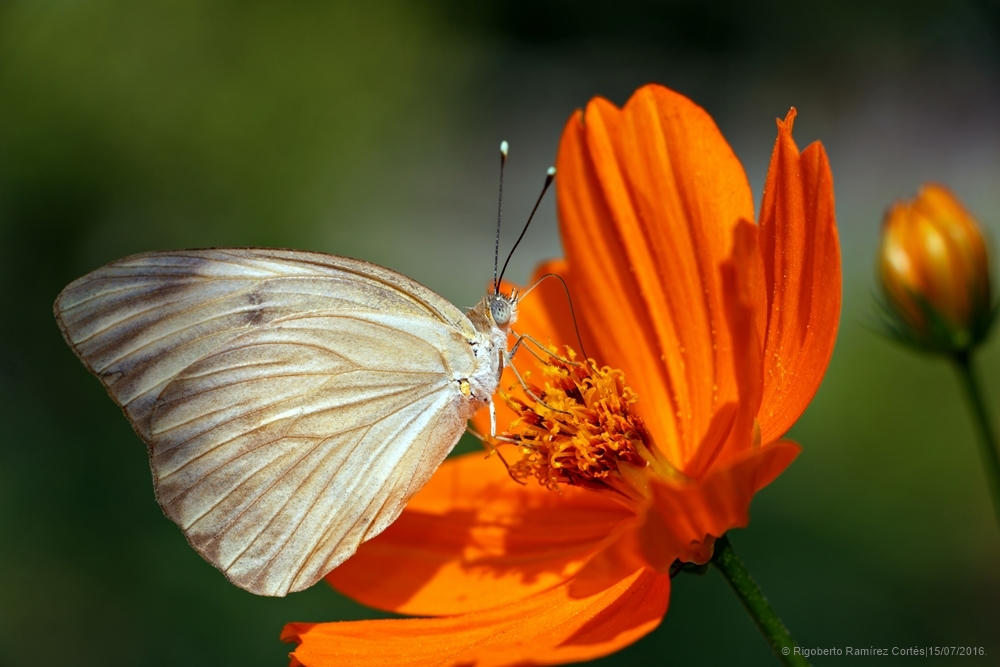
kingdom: Animalia
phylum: Arthropoda
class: Insecta
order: Lepidoptera
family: Pieridae
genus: Ascia
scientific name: Ascia monuste
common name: Great southern white
